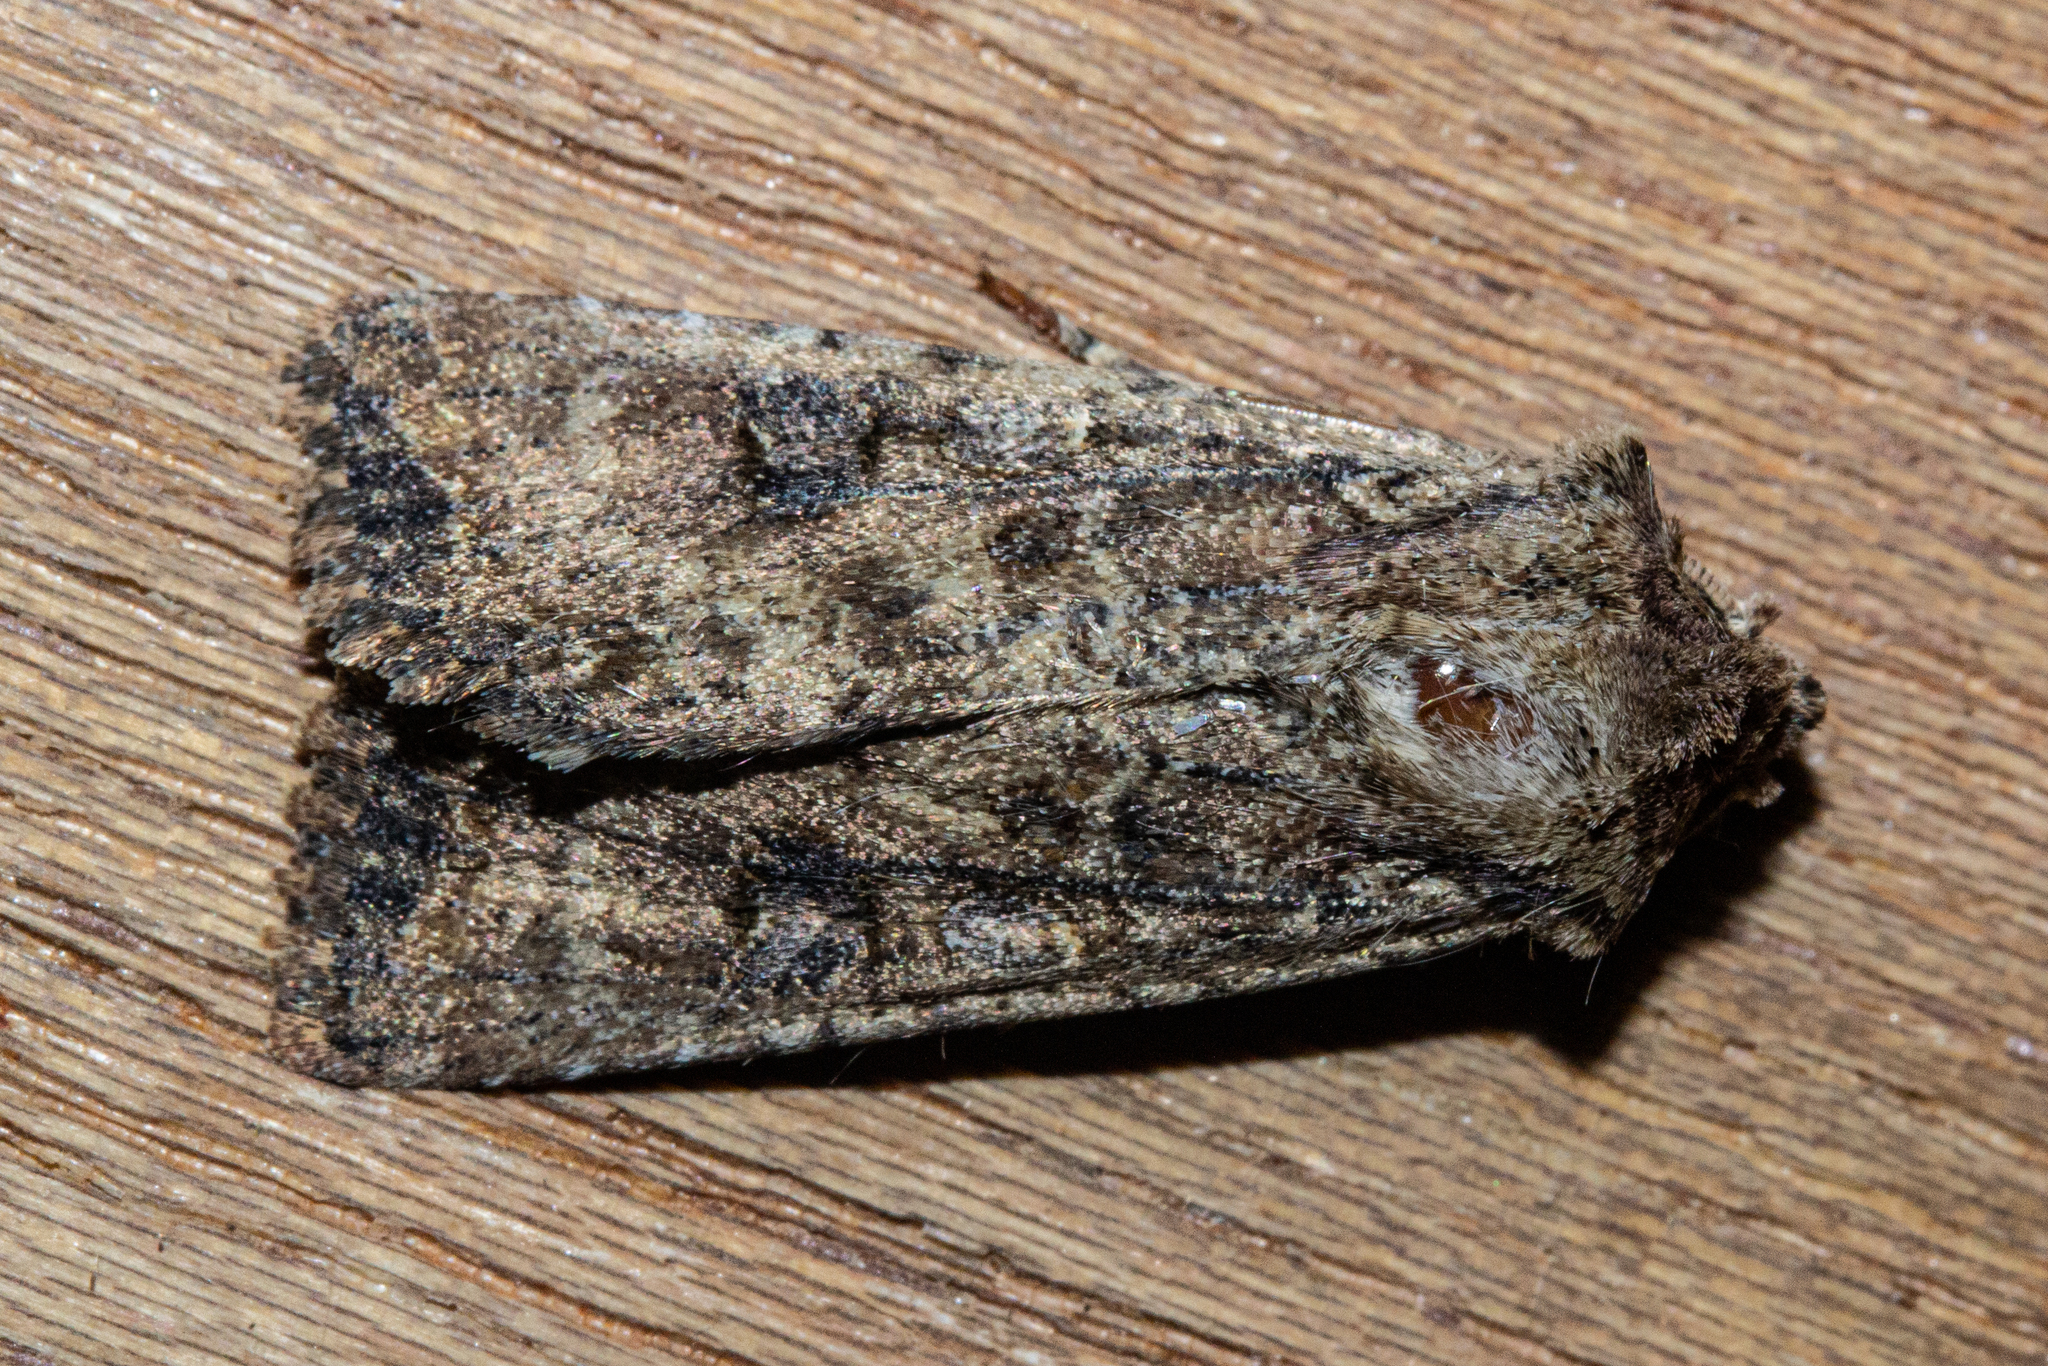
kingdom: Animalia
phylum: Arthropoda
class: Insecta
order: Lepidoptera
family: Noctuidae
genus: Ichneutica
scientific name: Ichneutica morosa
